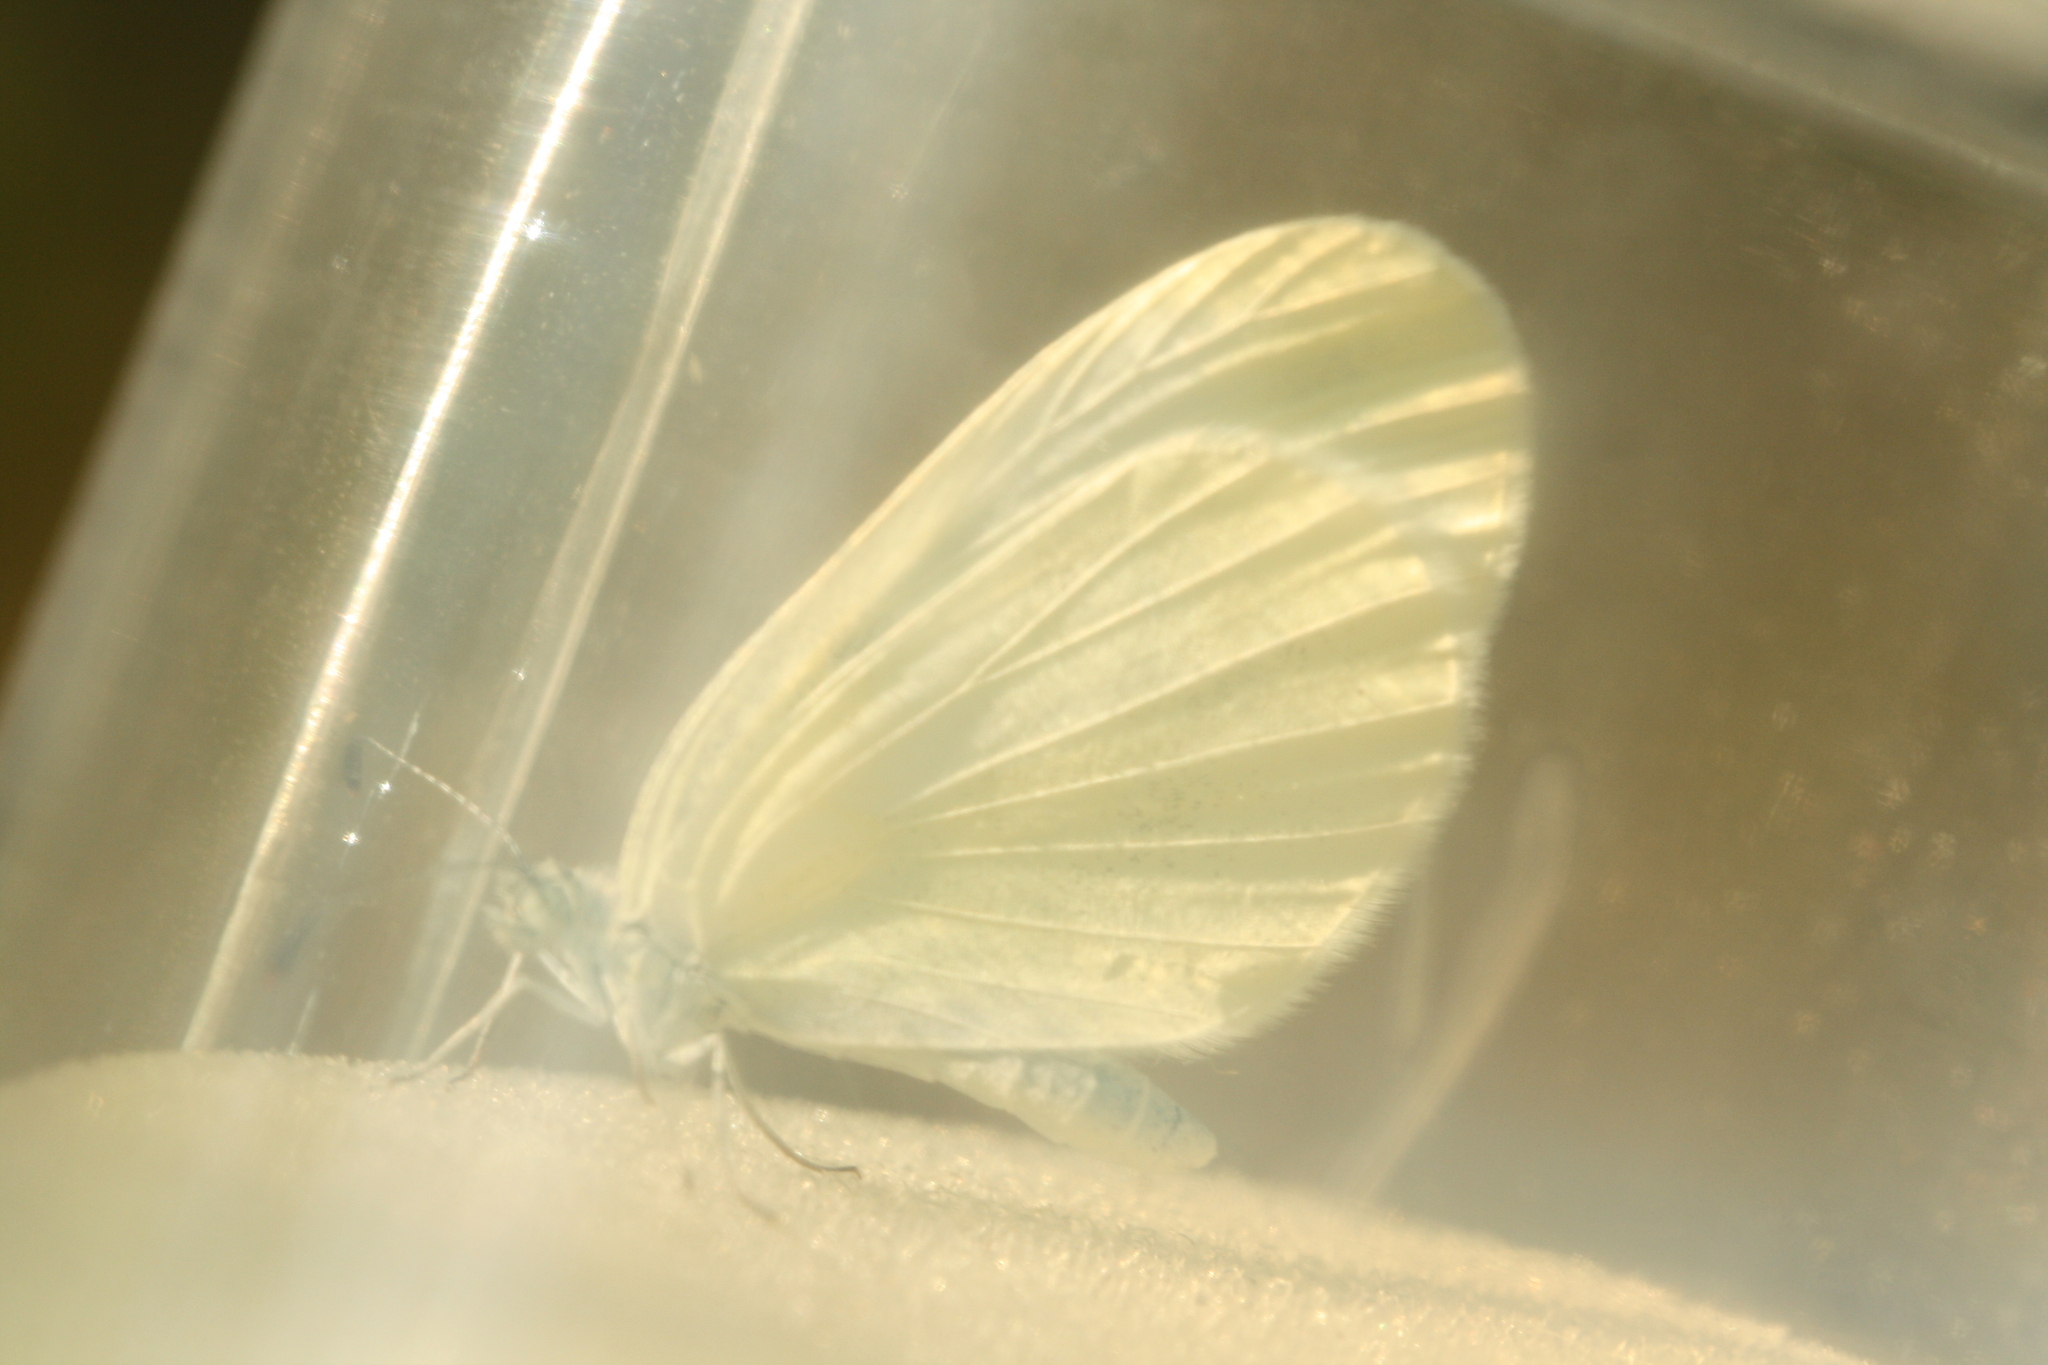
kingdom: Animalia
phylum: Arthropoda
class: Insecta
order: Lepidoptera
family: Pieridae
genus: Leptidea
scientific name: Leptidea
